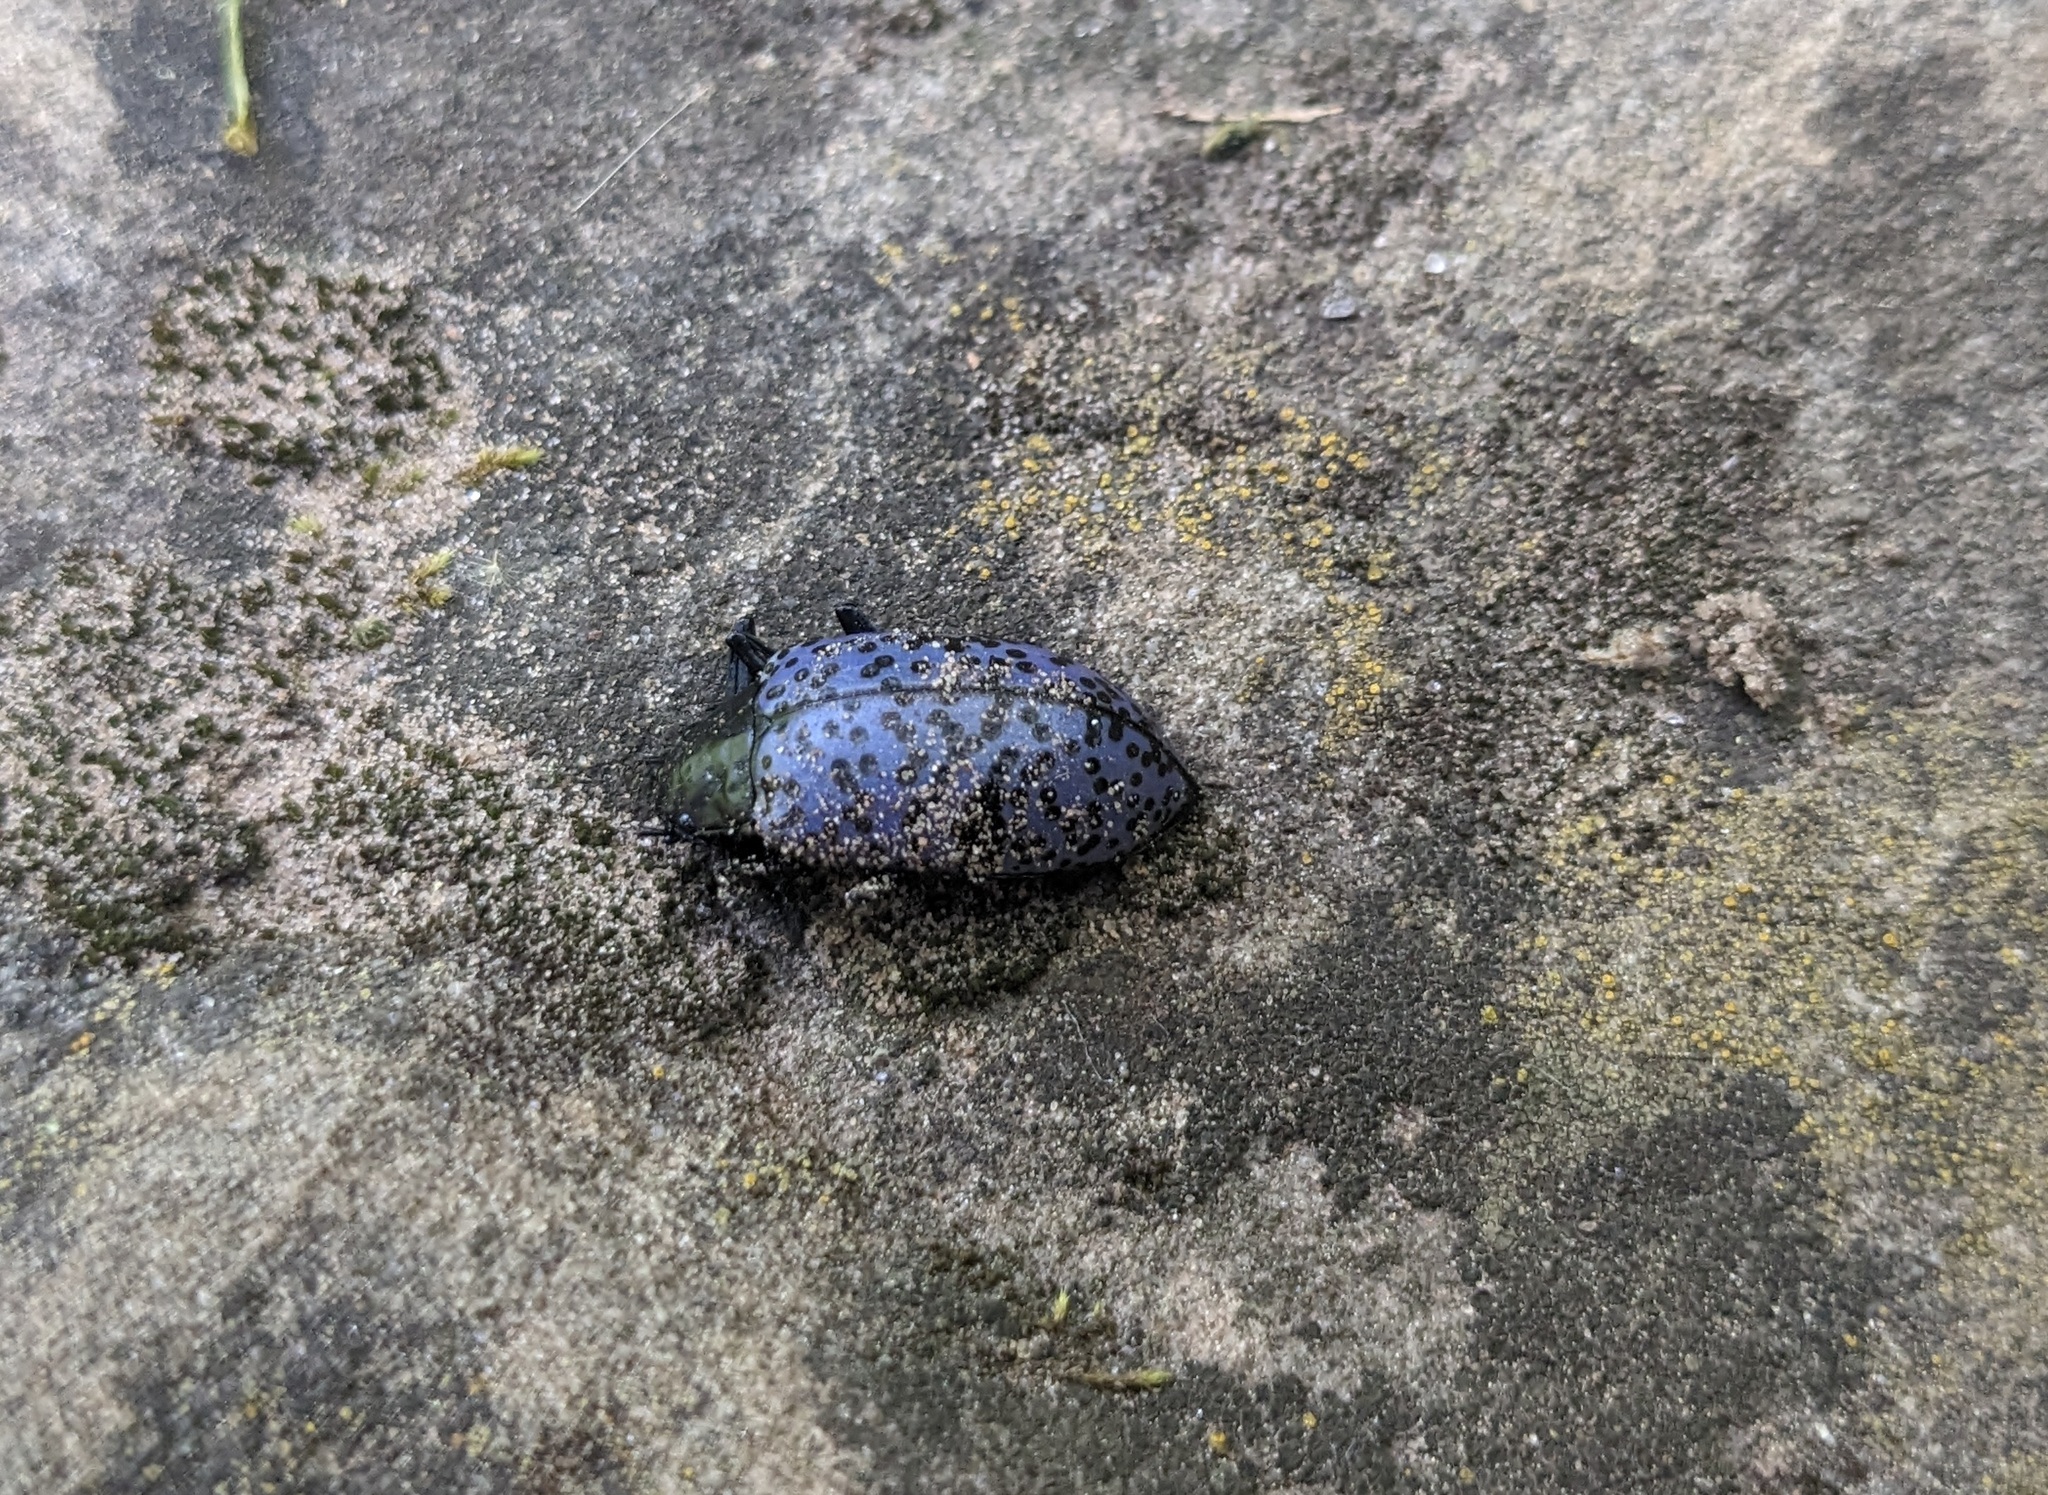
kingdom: Animalia
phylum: Arthropoda
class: Insecta
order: Coleoptera
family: Erotylidae
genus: Gibbifer
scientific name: Gibbifer californicus
